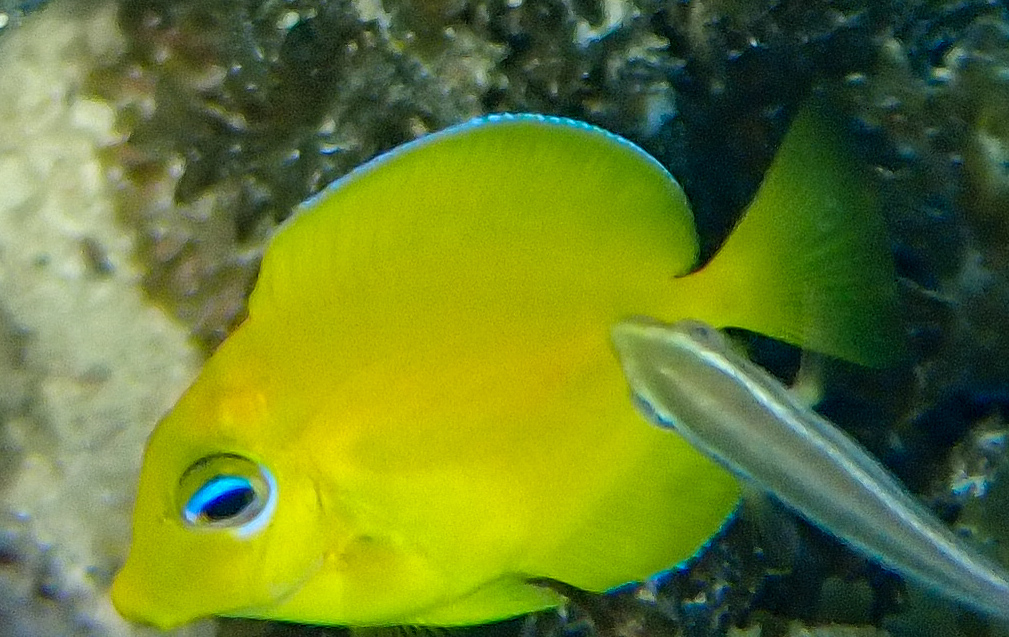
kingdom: Animalia
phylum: Chordata
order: Perciformes
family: Acanthuridae
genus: Acanthurus
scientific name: Acanthurus coeruleus
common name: Blue tang
